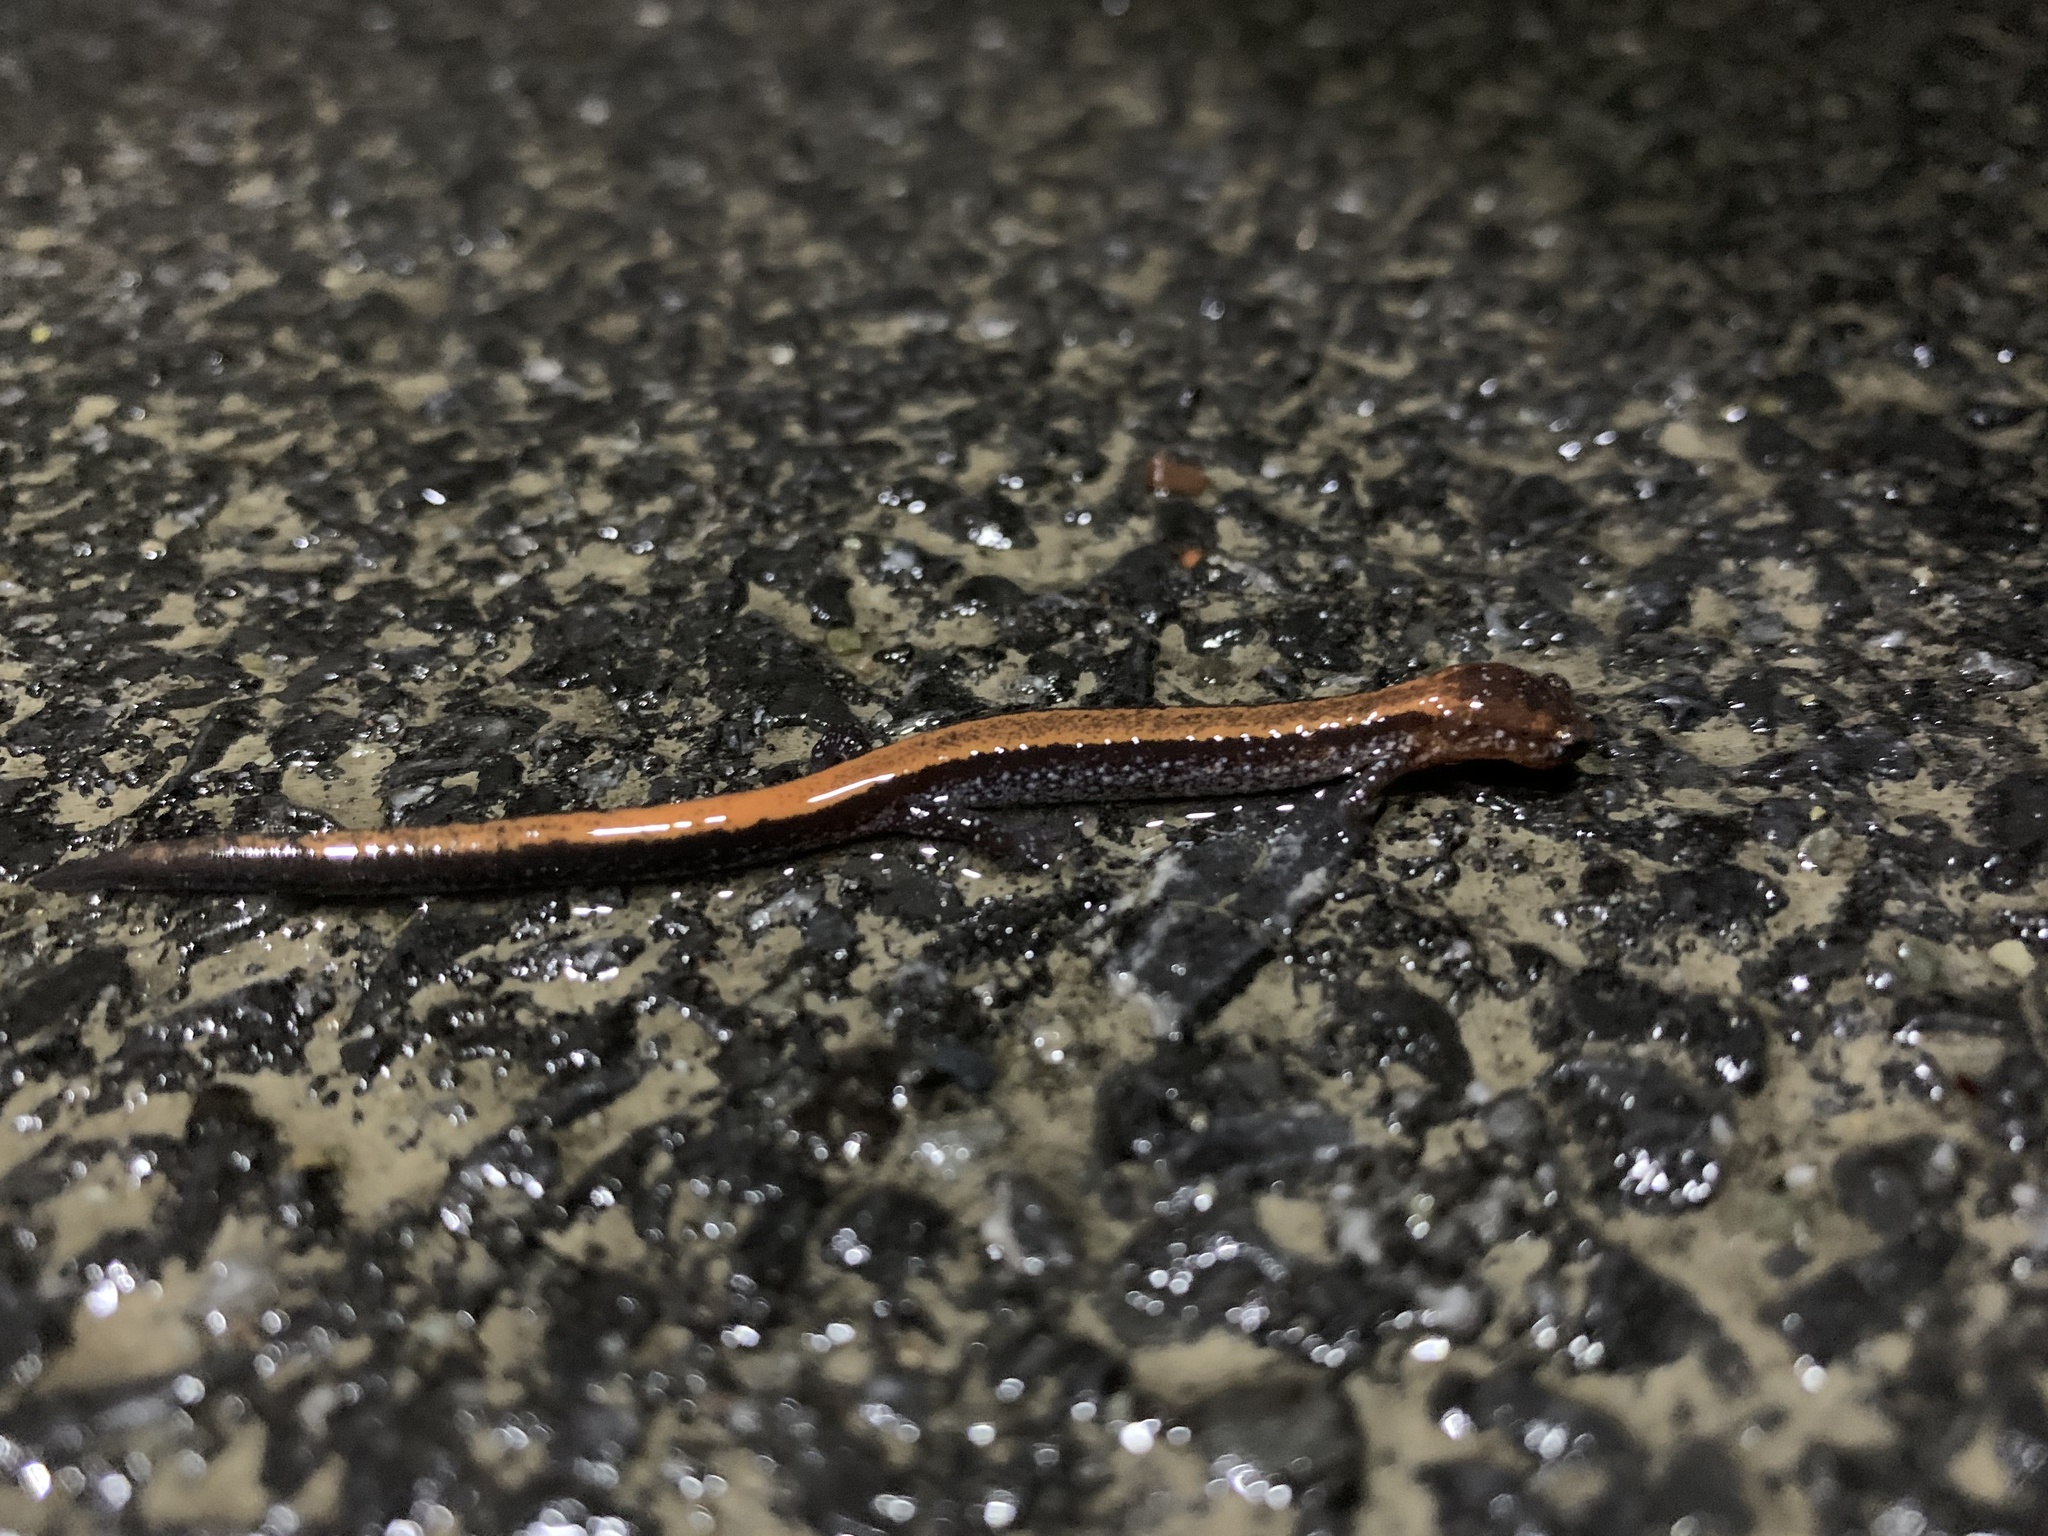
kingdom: Animalia
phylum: Chordata
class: Amphibia
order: Caudata
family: Plethodontidae
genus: Plethodon
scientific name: Plethodon cinereus
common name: Redback salamander
